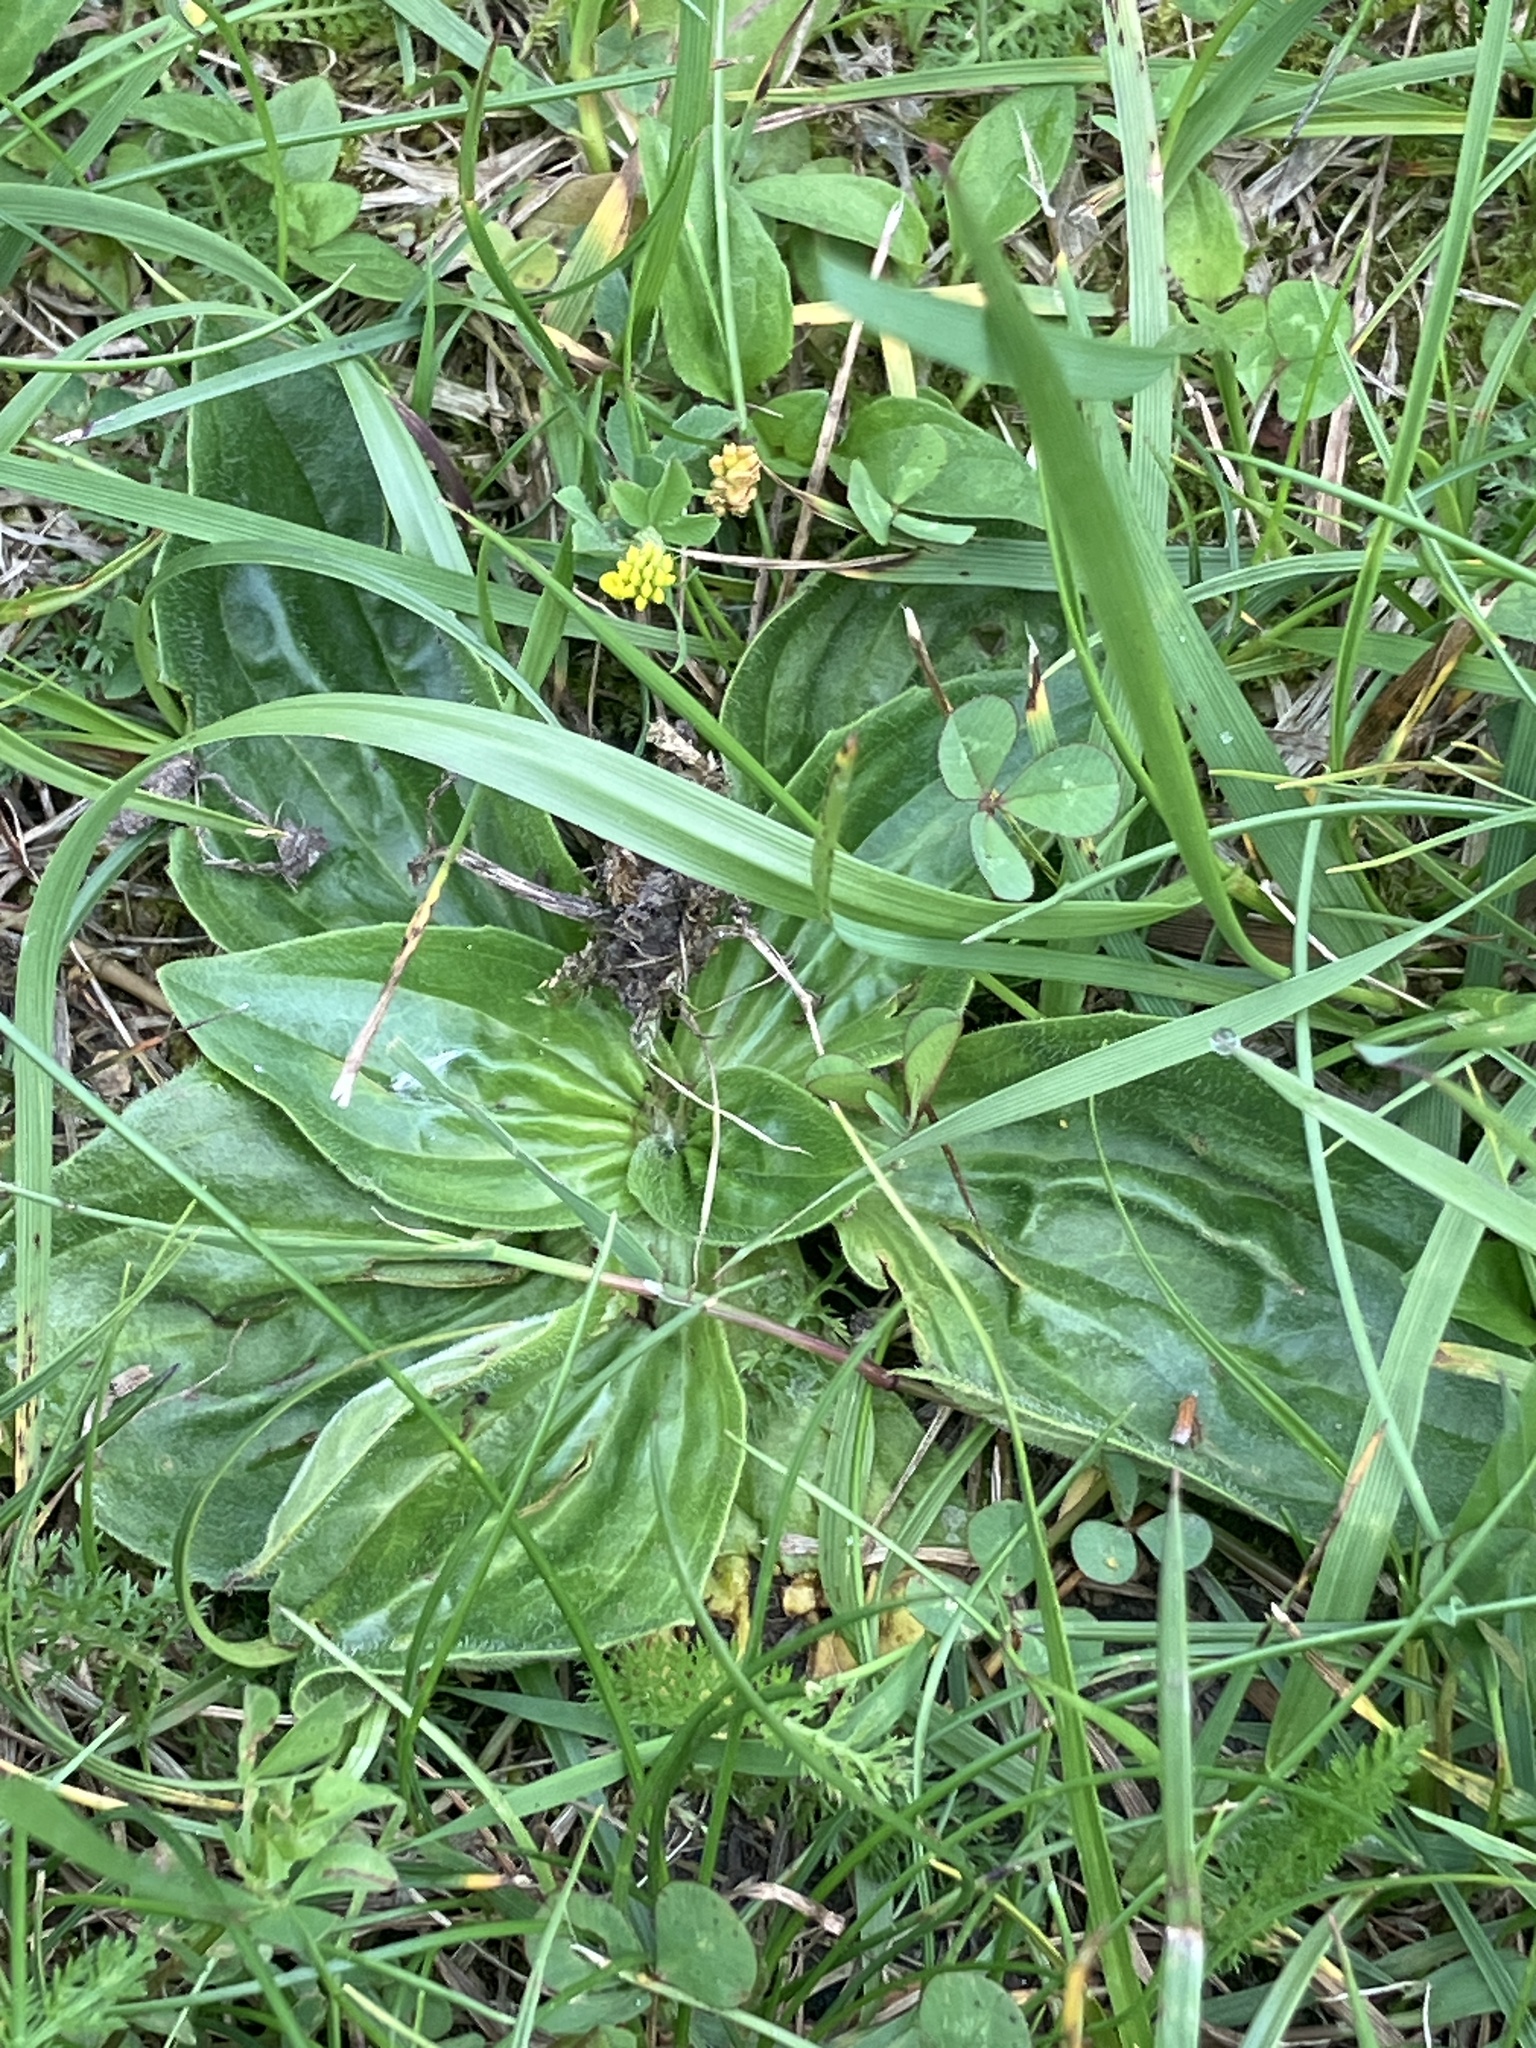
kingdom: Plantae
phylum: Tracheophyta
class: Magnoliopsida
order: Lamiales
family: Plantaginaceae
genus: Plantago
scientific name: Plantago media
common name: Hoary plantain
